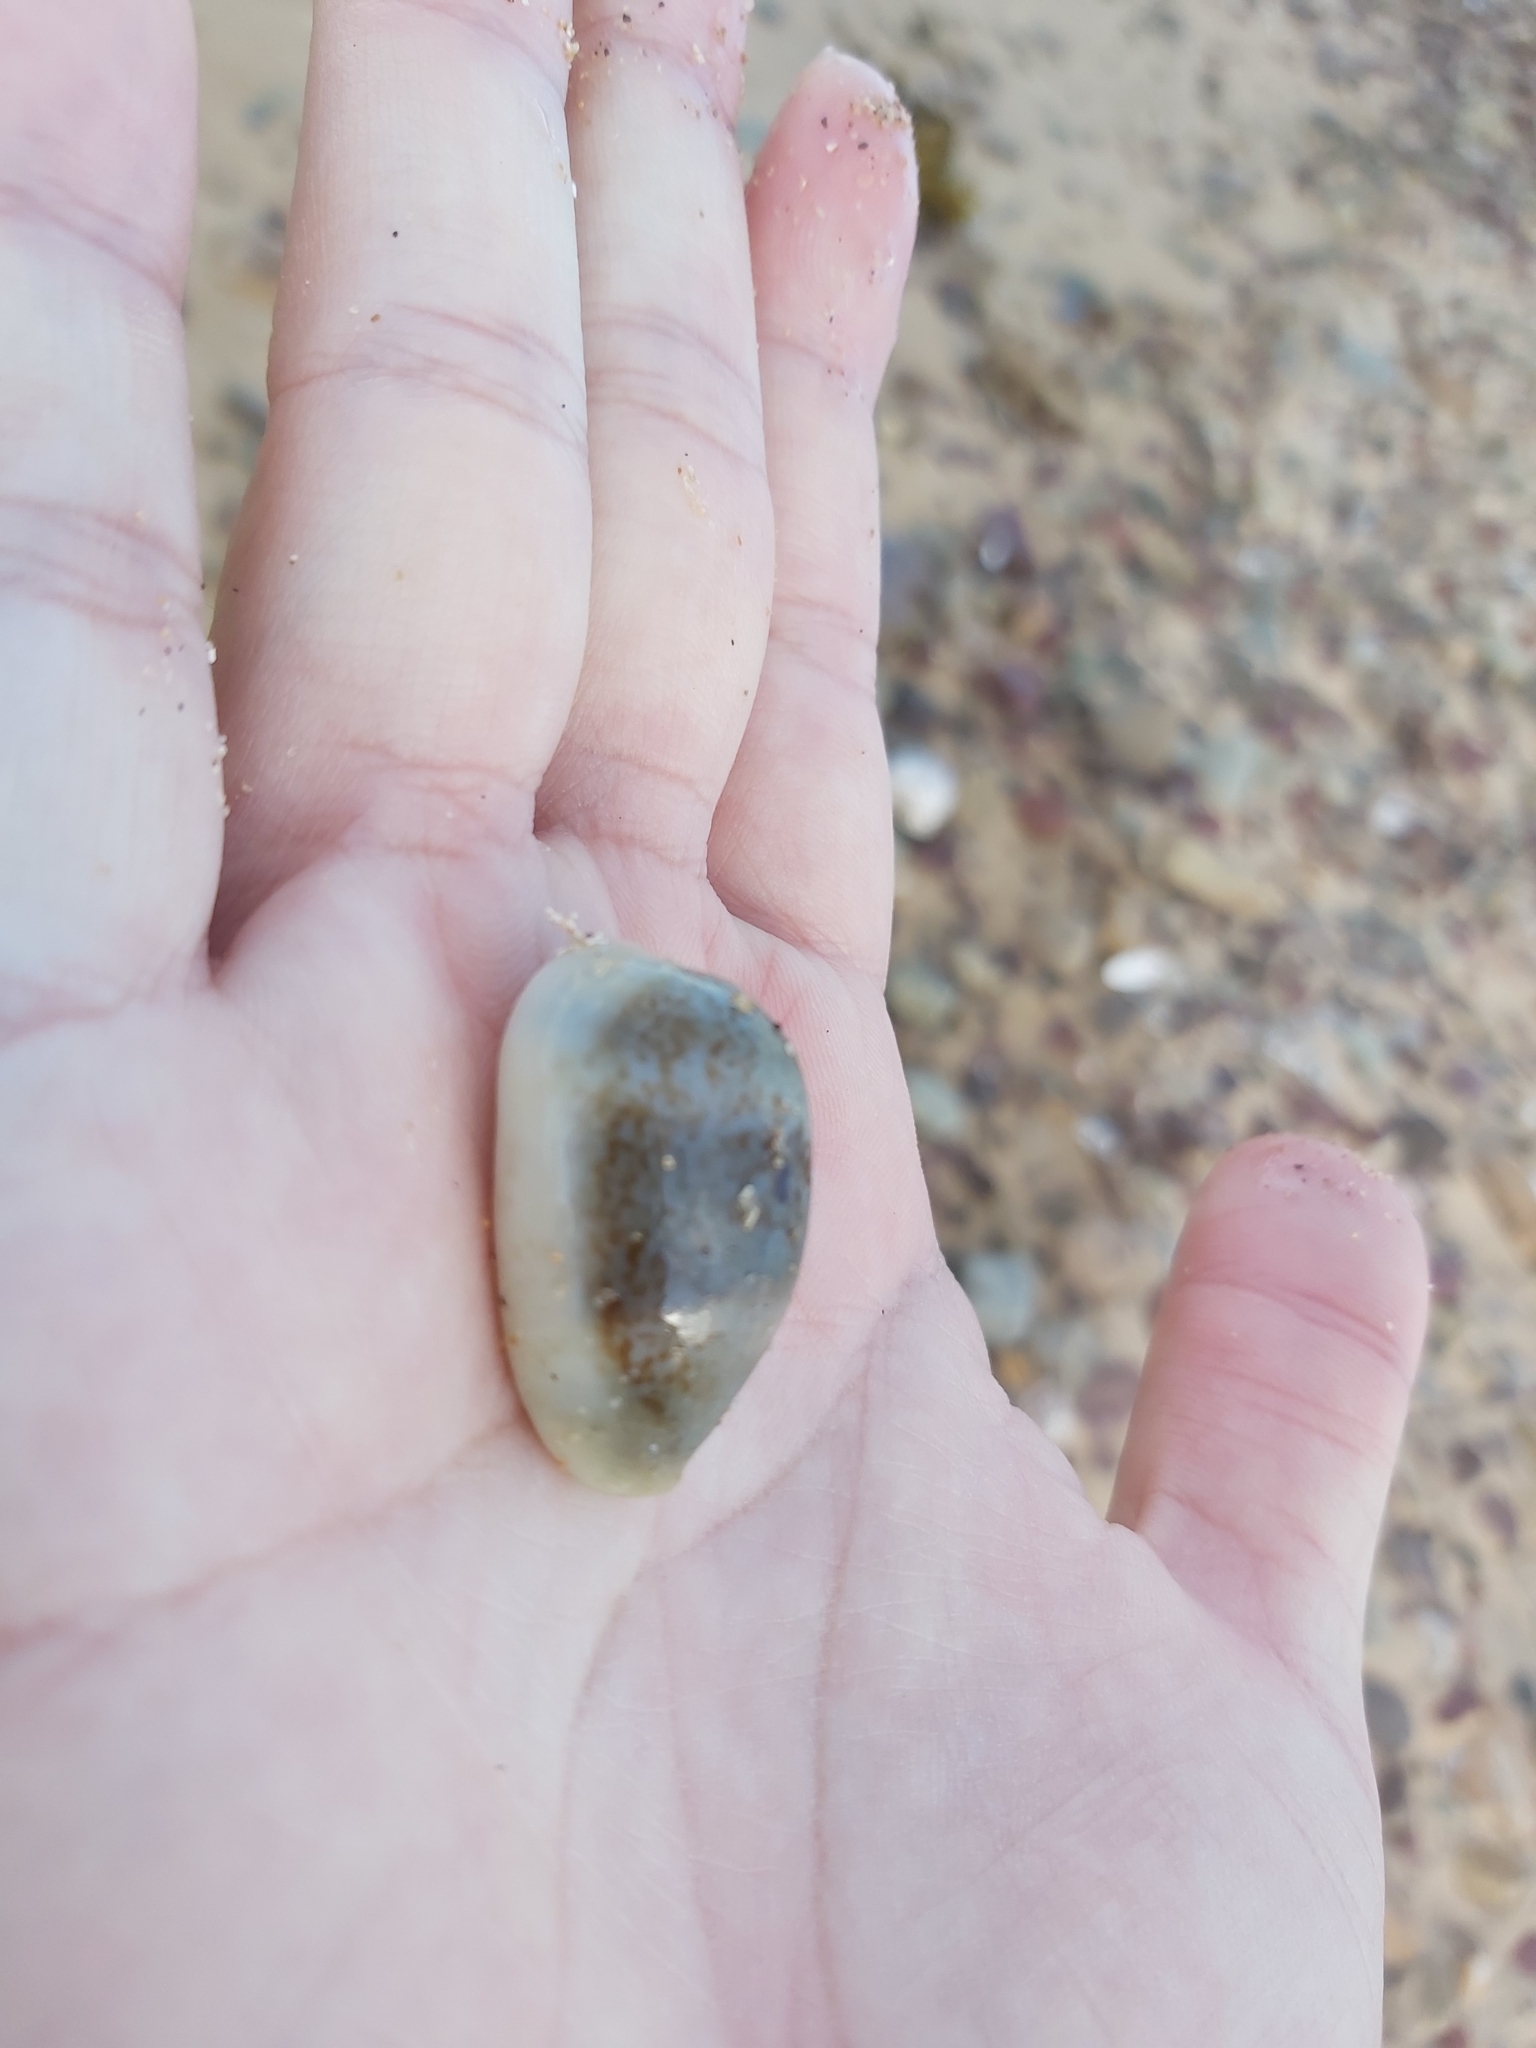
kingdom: Animalia
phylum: Mollusca
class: Gastropoda
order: Littorinimorpha
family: Cypraeidae
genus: Erronea
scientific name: Erronea errones
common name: Mistaken cowrie
